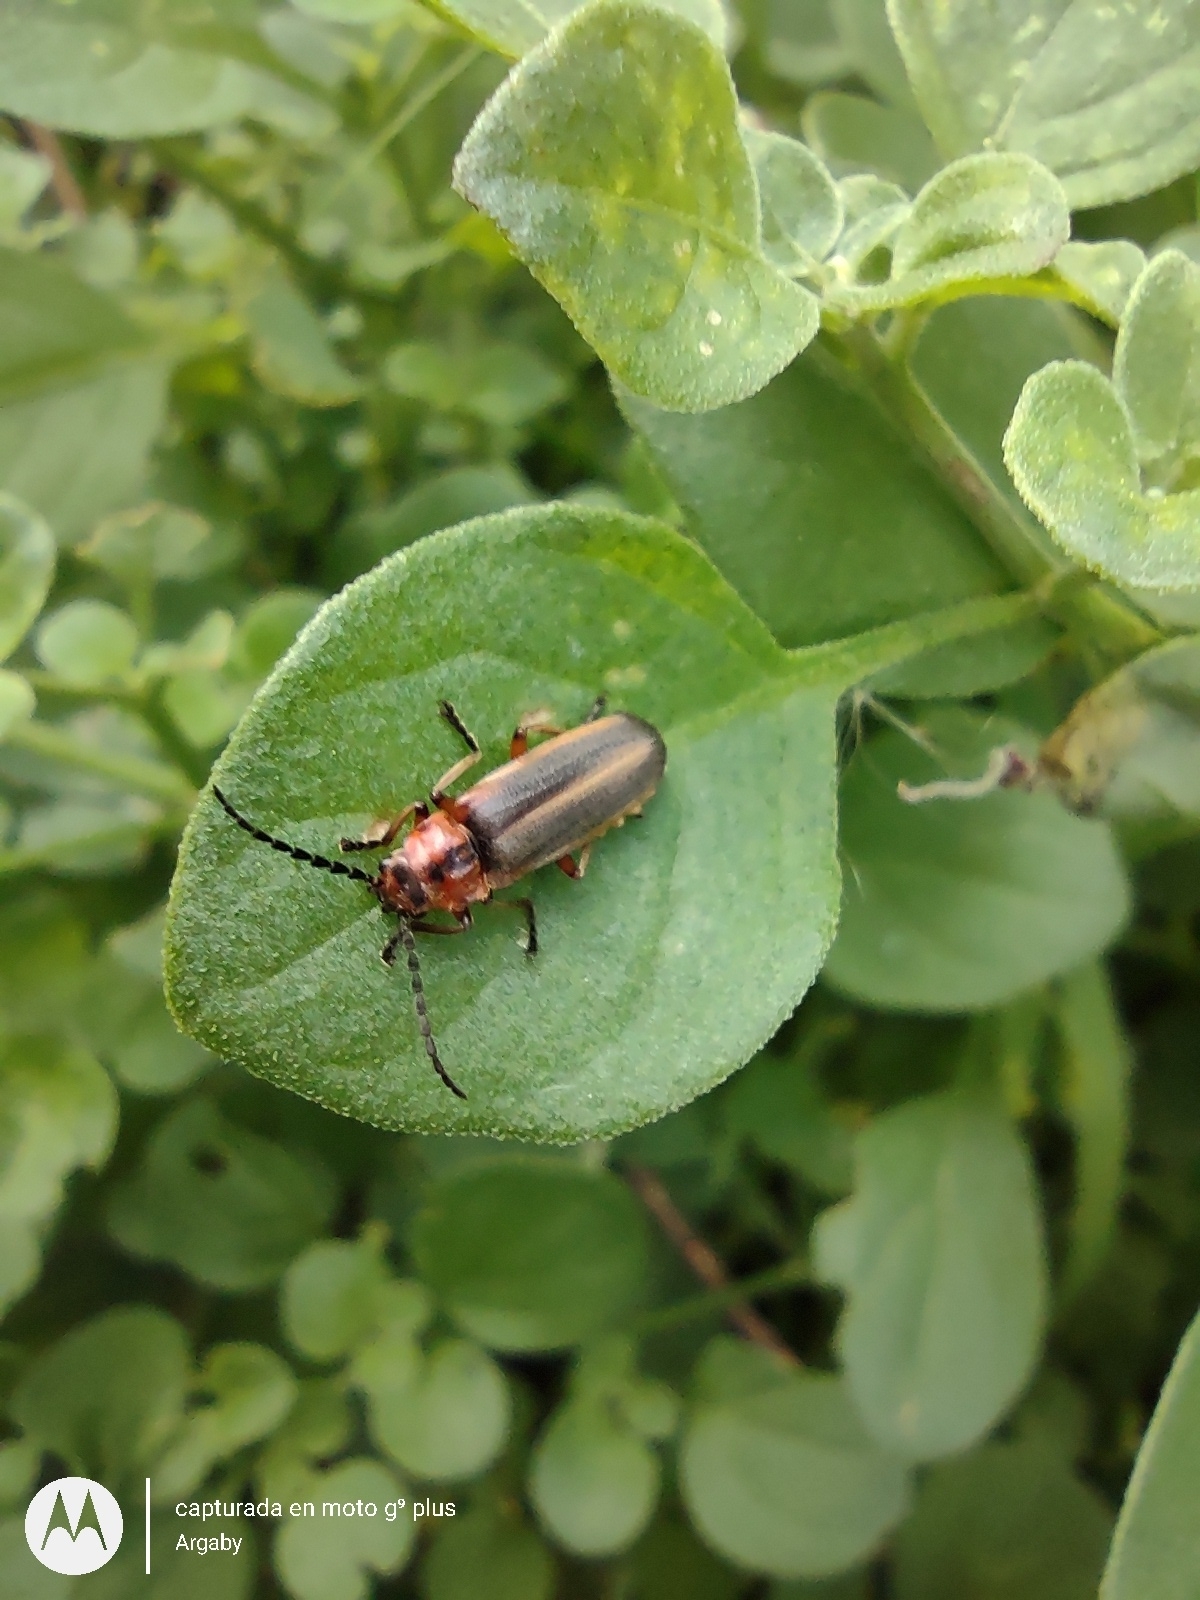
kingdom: Animalia
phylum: Arthropoda
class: Insecta
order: Coleoptera
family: Cantharidae
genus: Discodon
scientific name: Discodon
